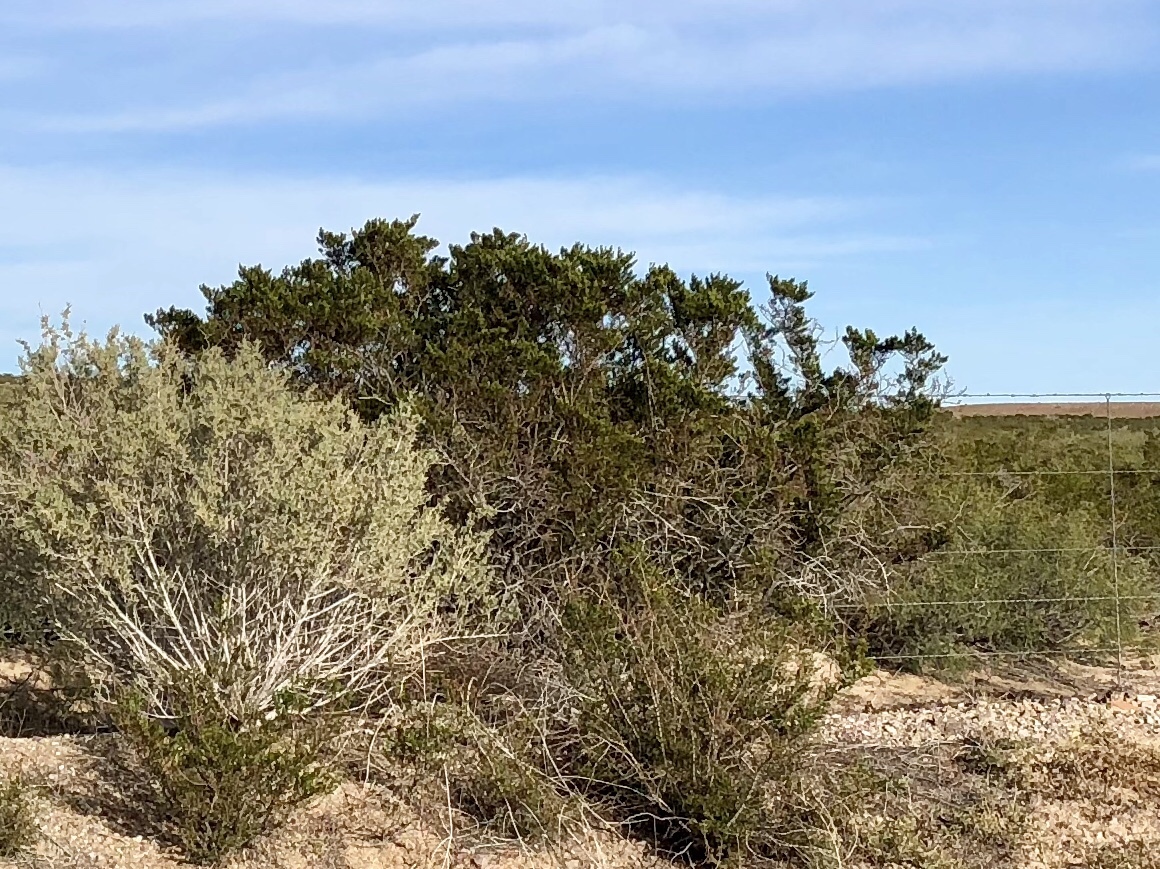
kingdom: Plantae
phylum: Tracheophyta
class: Magnoliopsida
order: Zygophyllales
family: Zygophyllaceae
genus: Larrea
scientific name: Larrea tridentata
